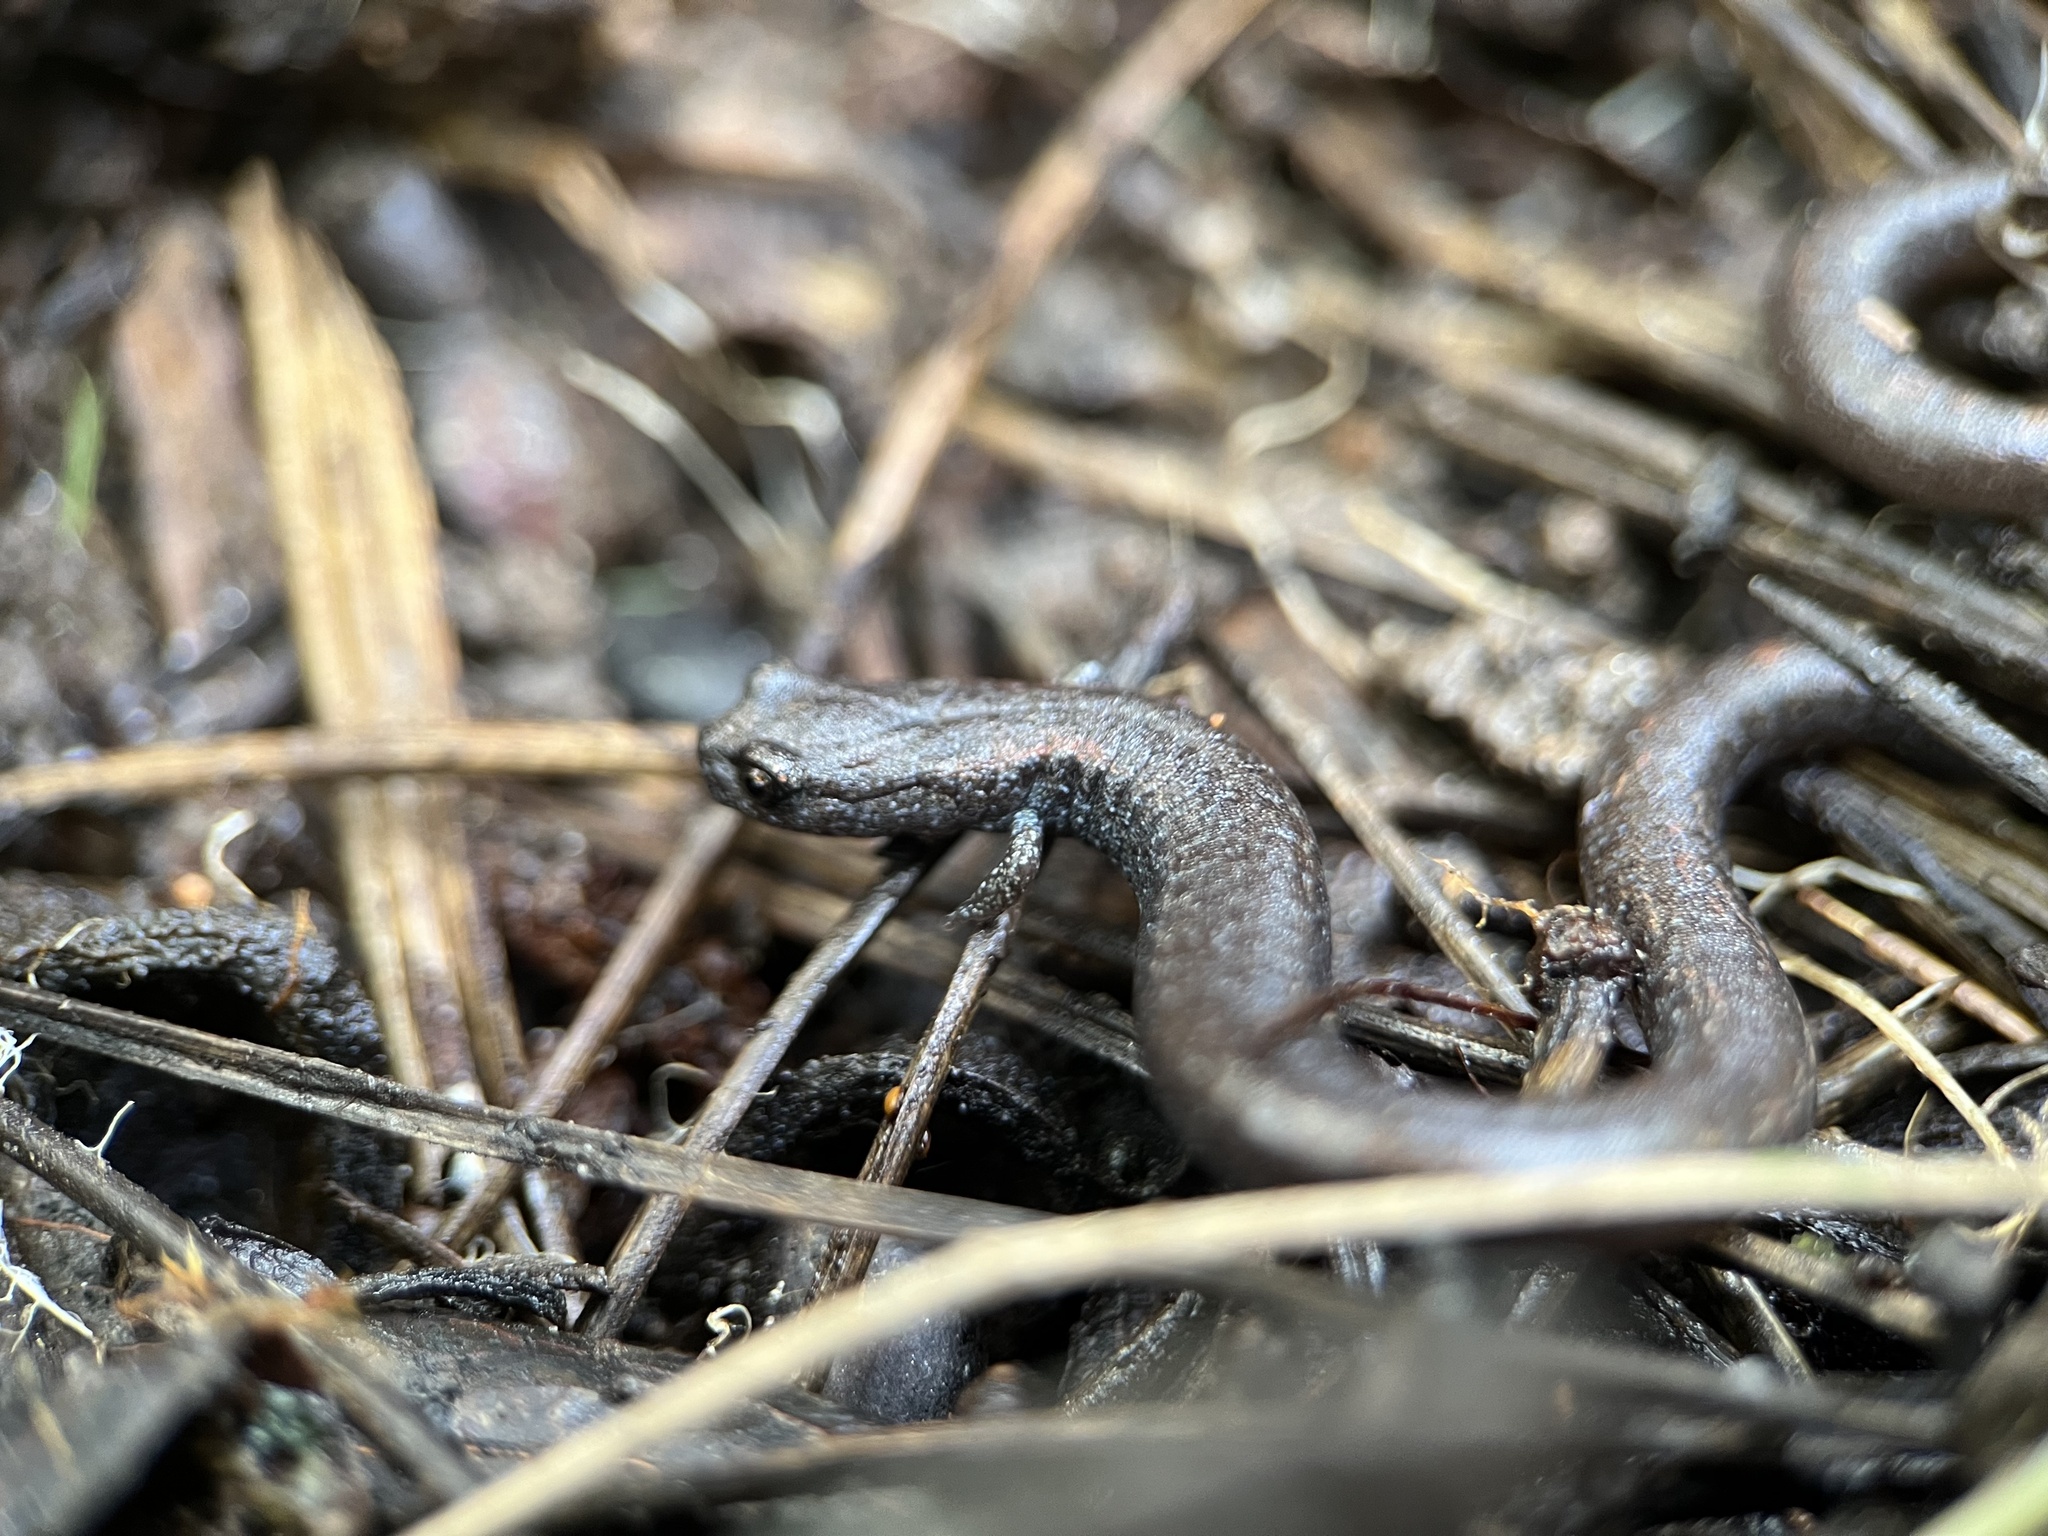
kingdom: Animalia
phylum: Chordata
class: Amphibia
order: Caudata
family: Plethodontidae
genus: Batrachoseps
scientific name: Batrachoseps major
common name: Garden slender salamander
